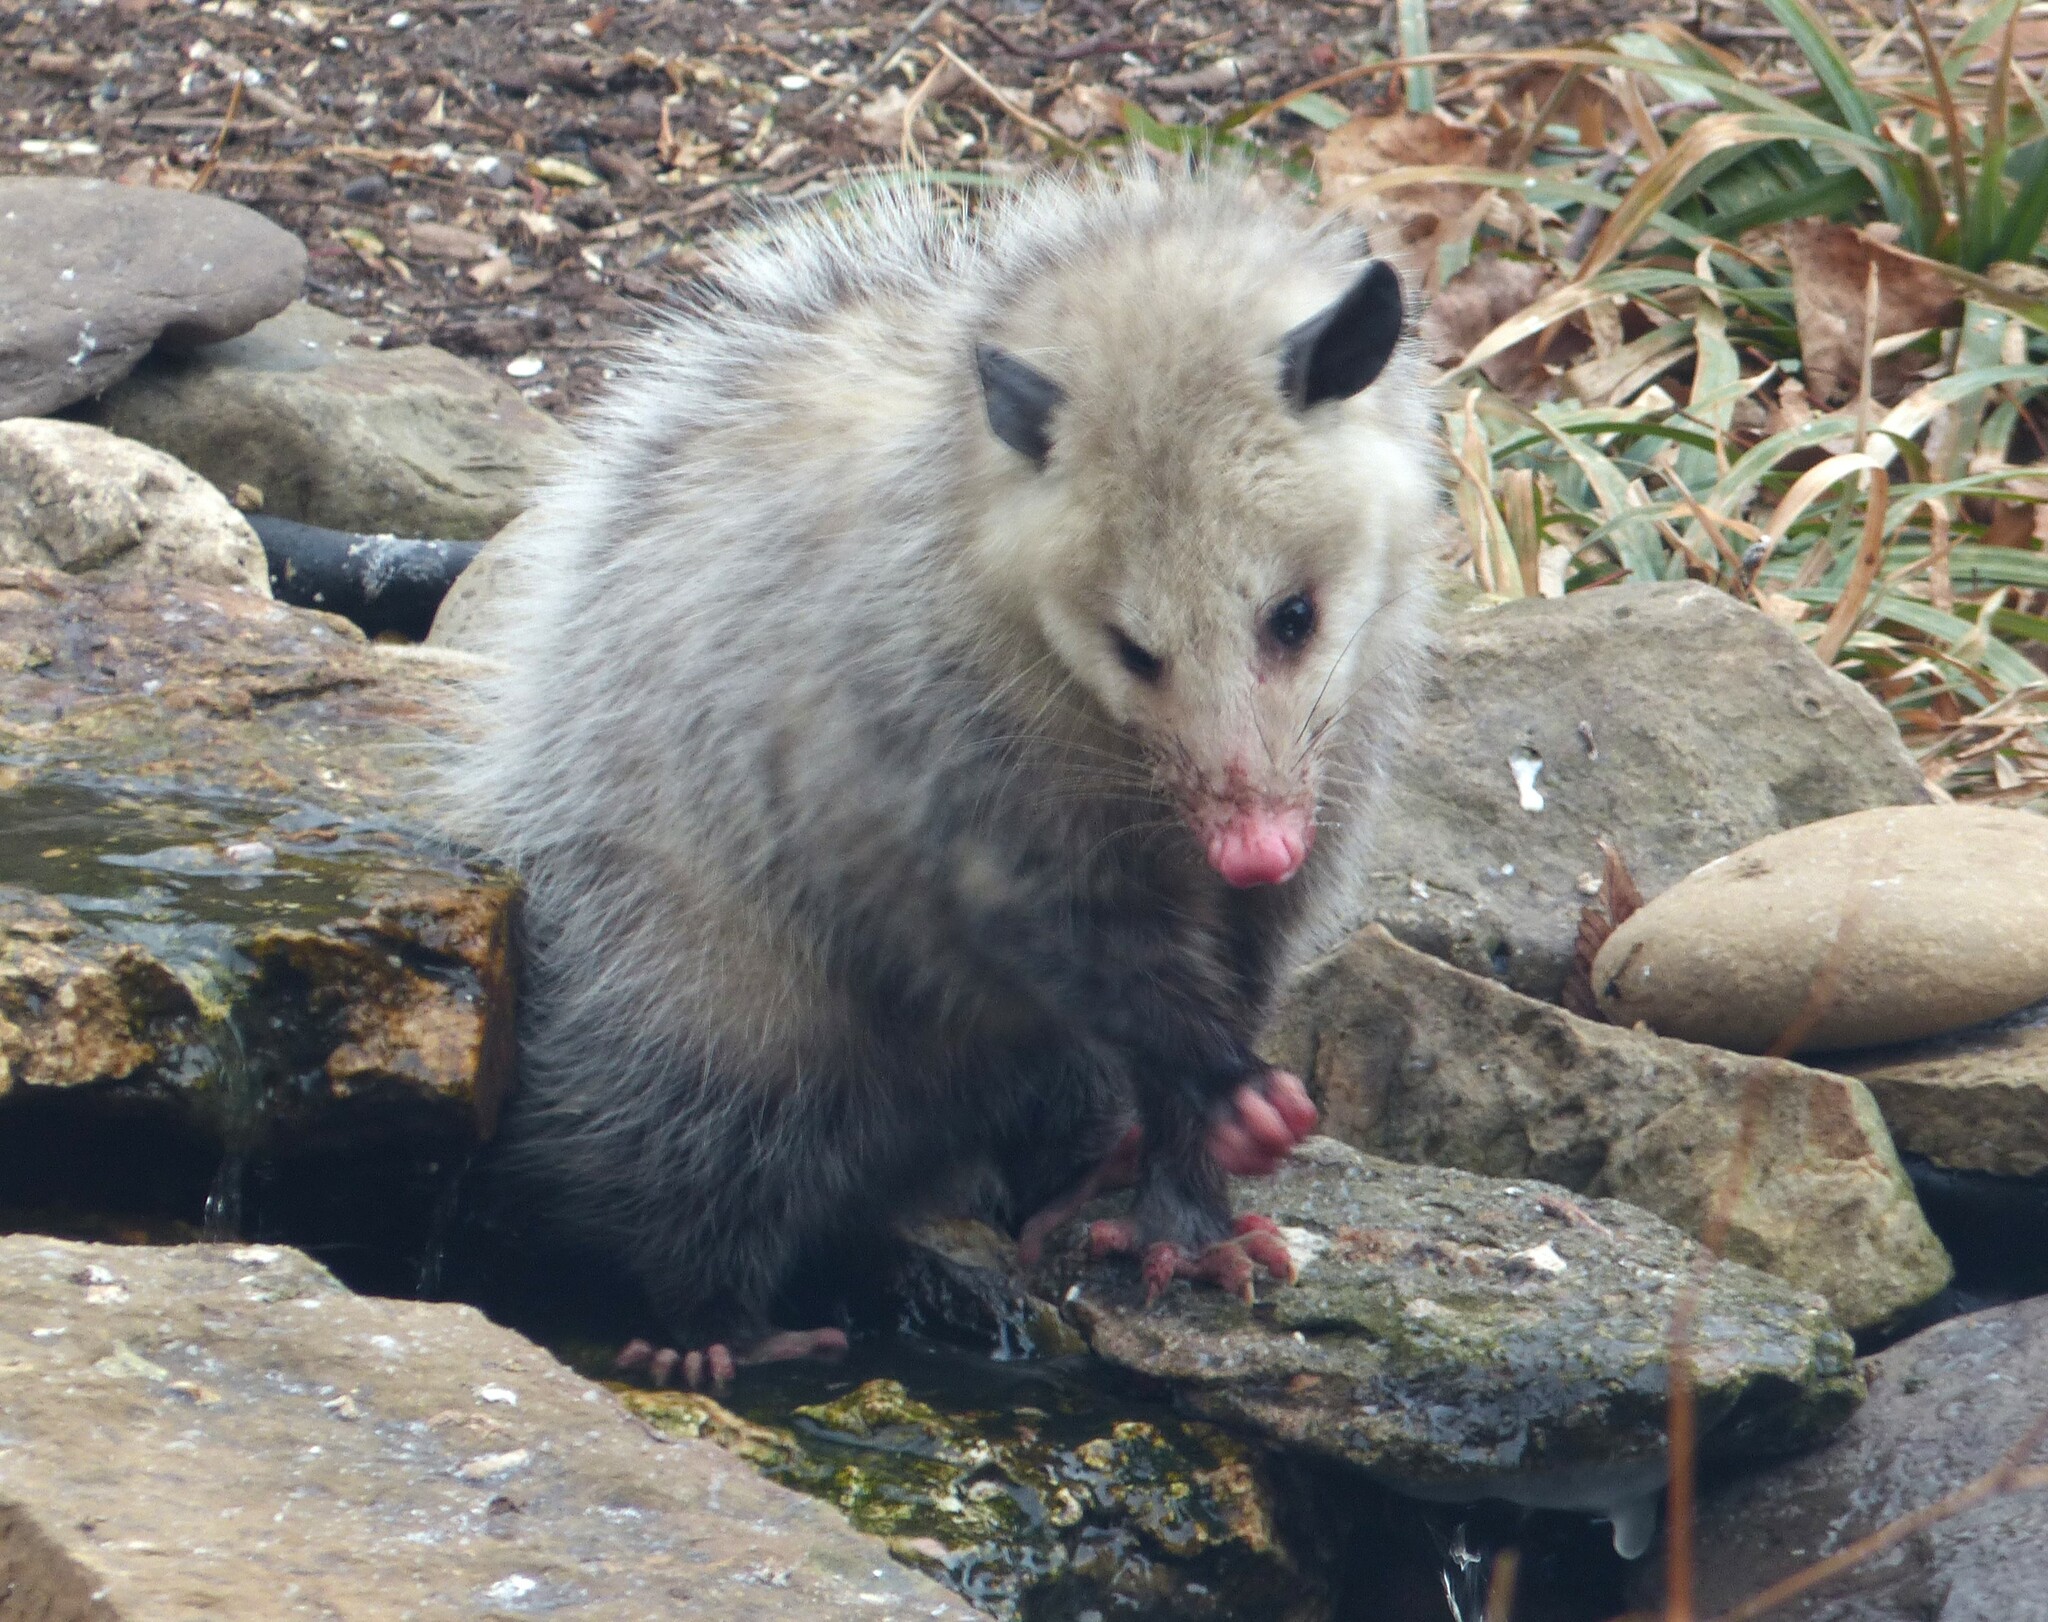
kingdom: Animalia
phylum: Chordata
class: Mammalia
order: Didelphimorphia
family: Didelphidae
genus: Didelphis
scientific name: Didelphis virginiana
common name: Virginia opossum
